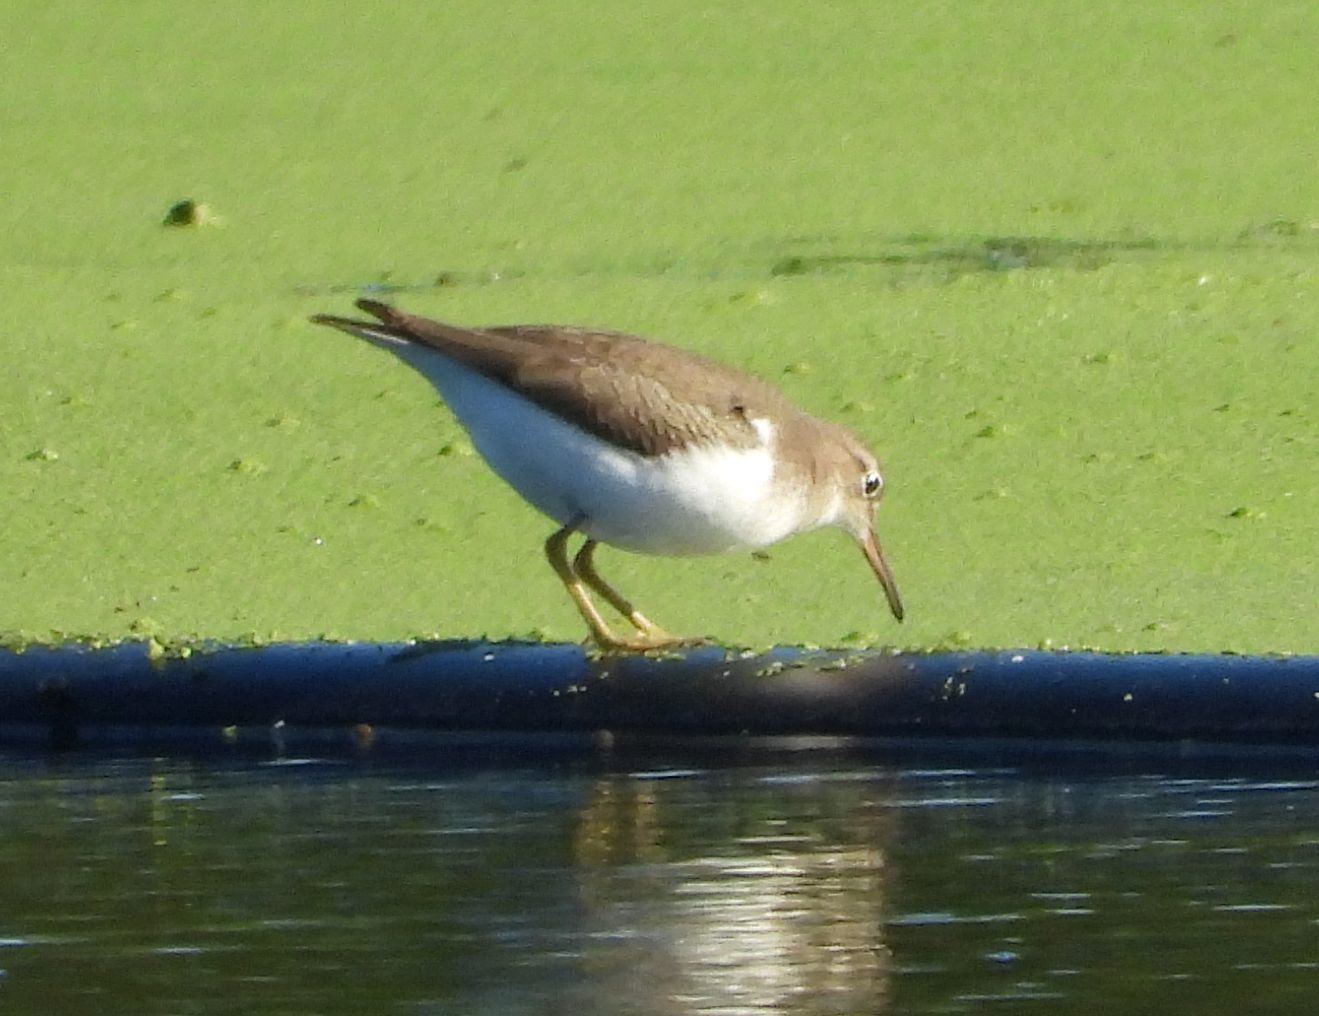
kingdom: Animalia
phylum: Chordata
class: Aves
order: Charadriiformes
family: Scolopacidae
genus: Actitis
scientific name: Actitis macularius
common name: Spotted sandpiper
